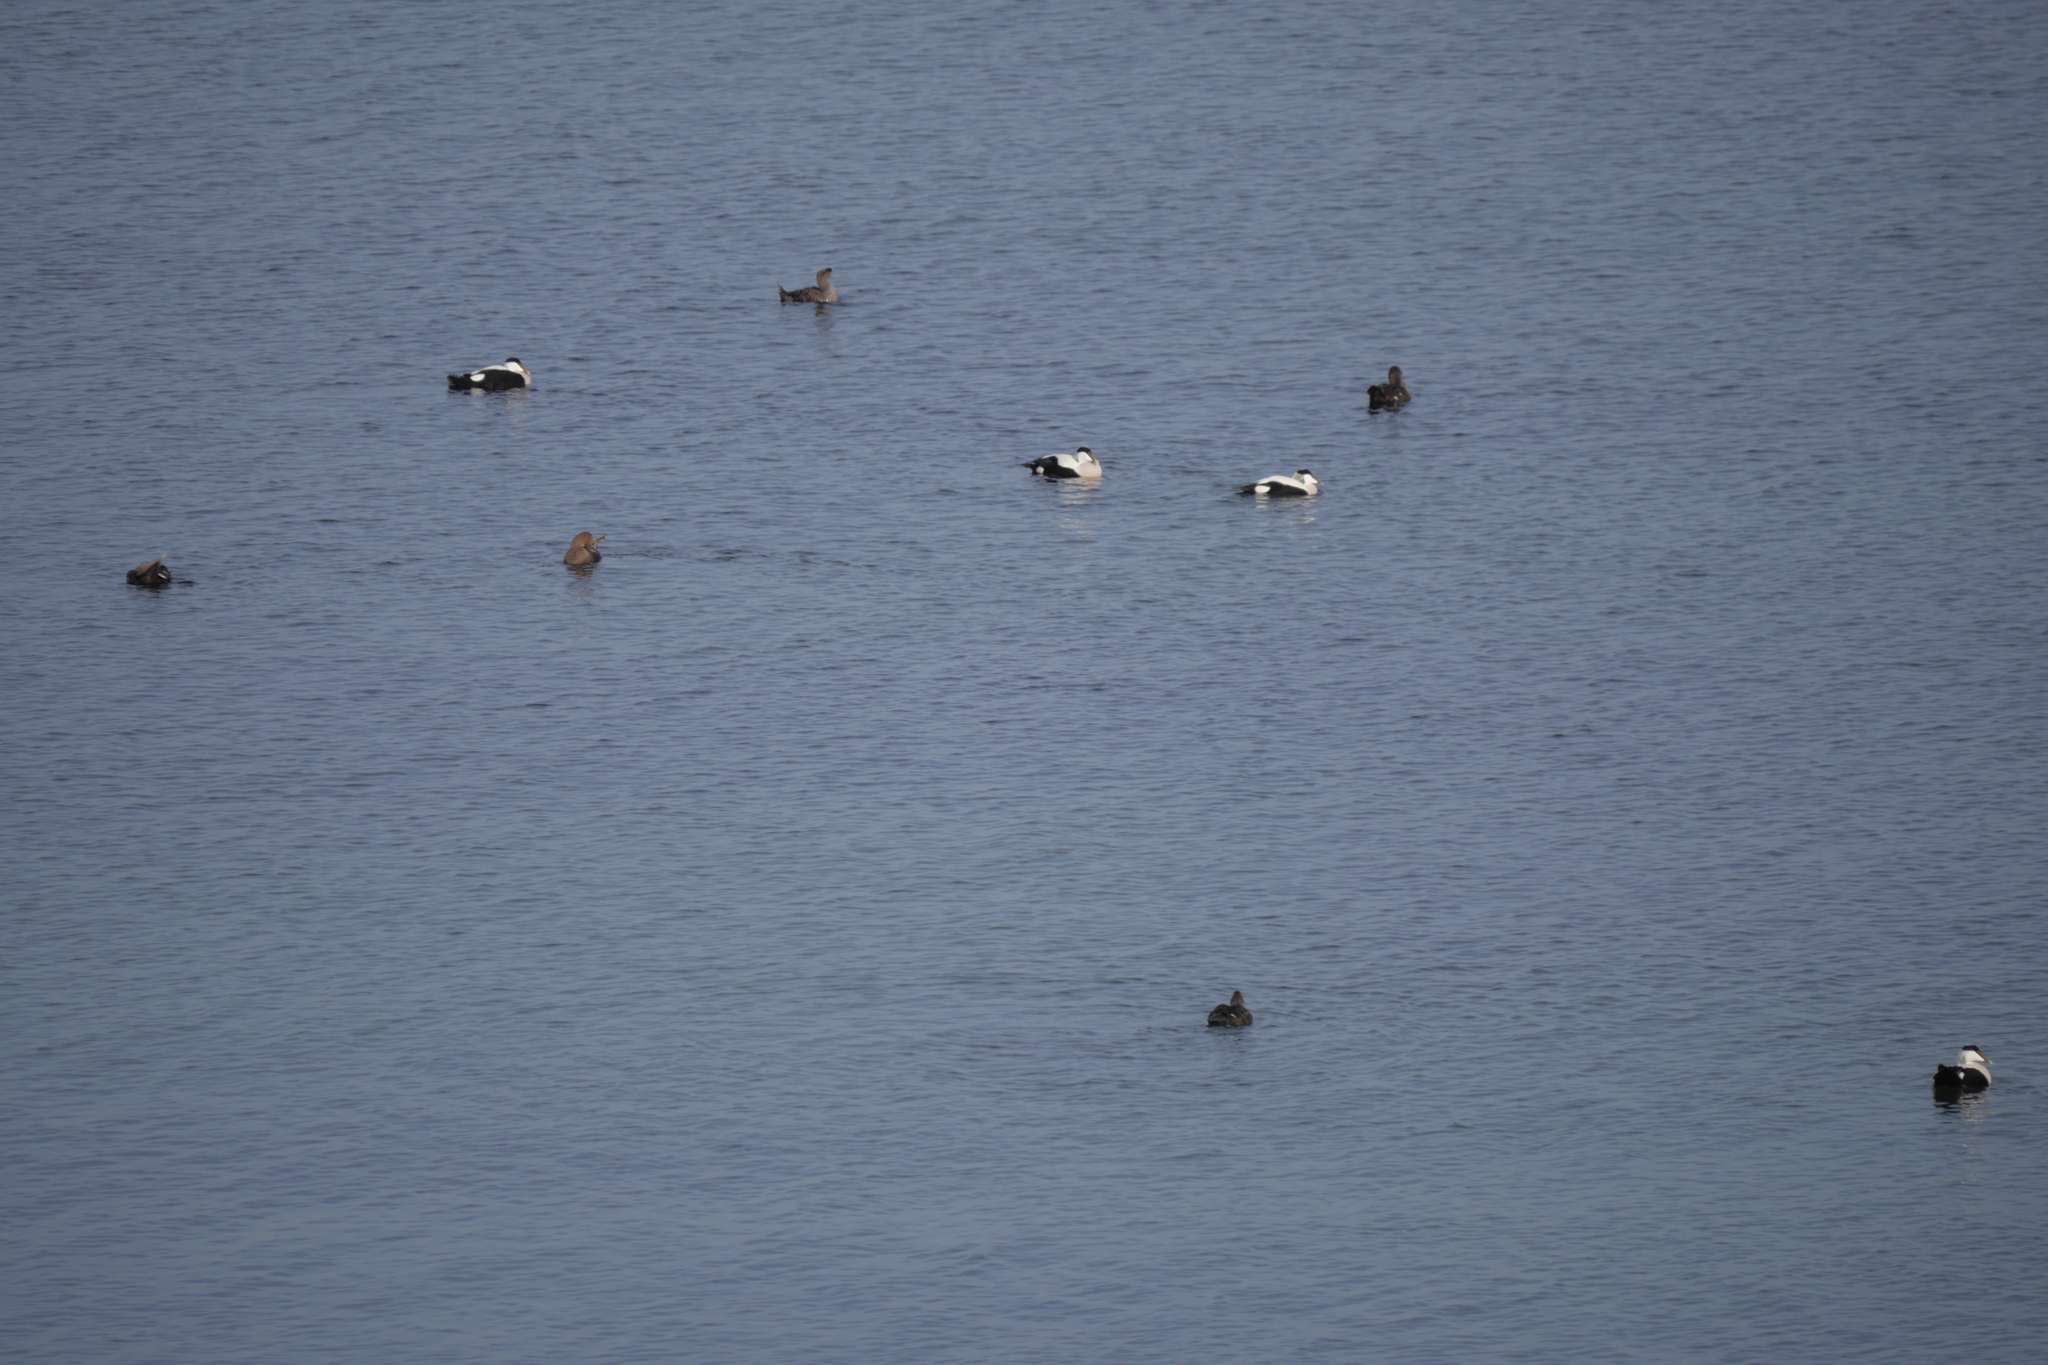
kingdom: Animalia
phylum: Chordata
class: Aves
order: Anseriformes
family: Anatidae
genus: Somateria
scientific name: Somateria mollissima
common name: Common eider
